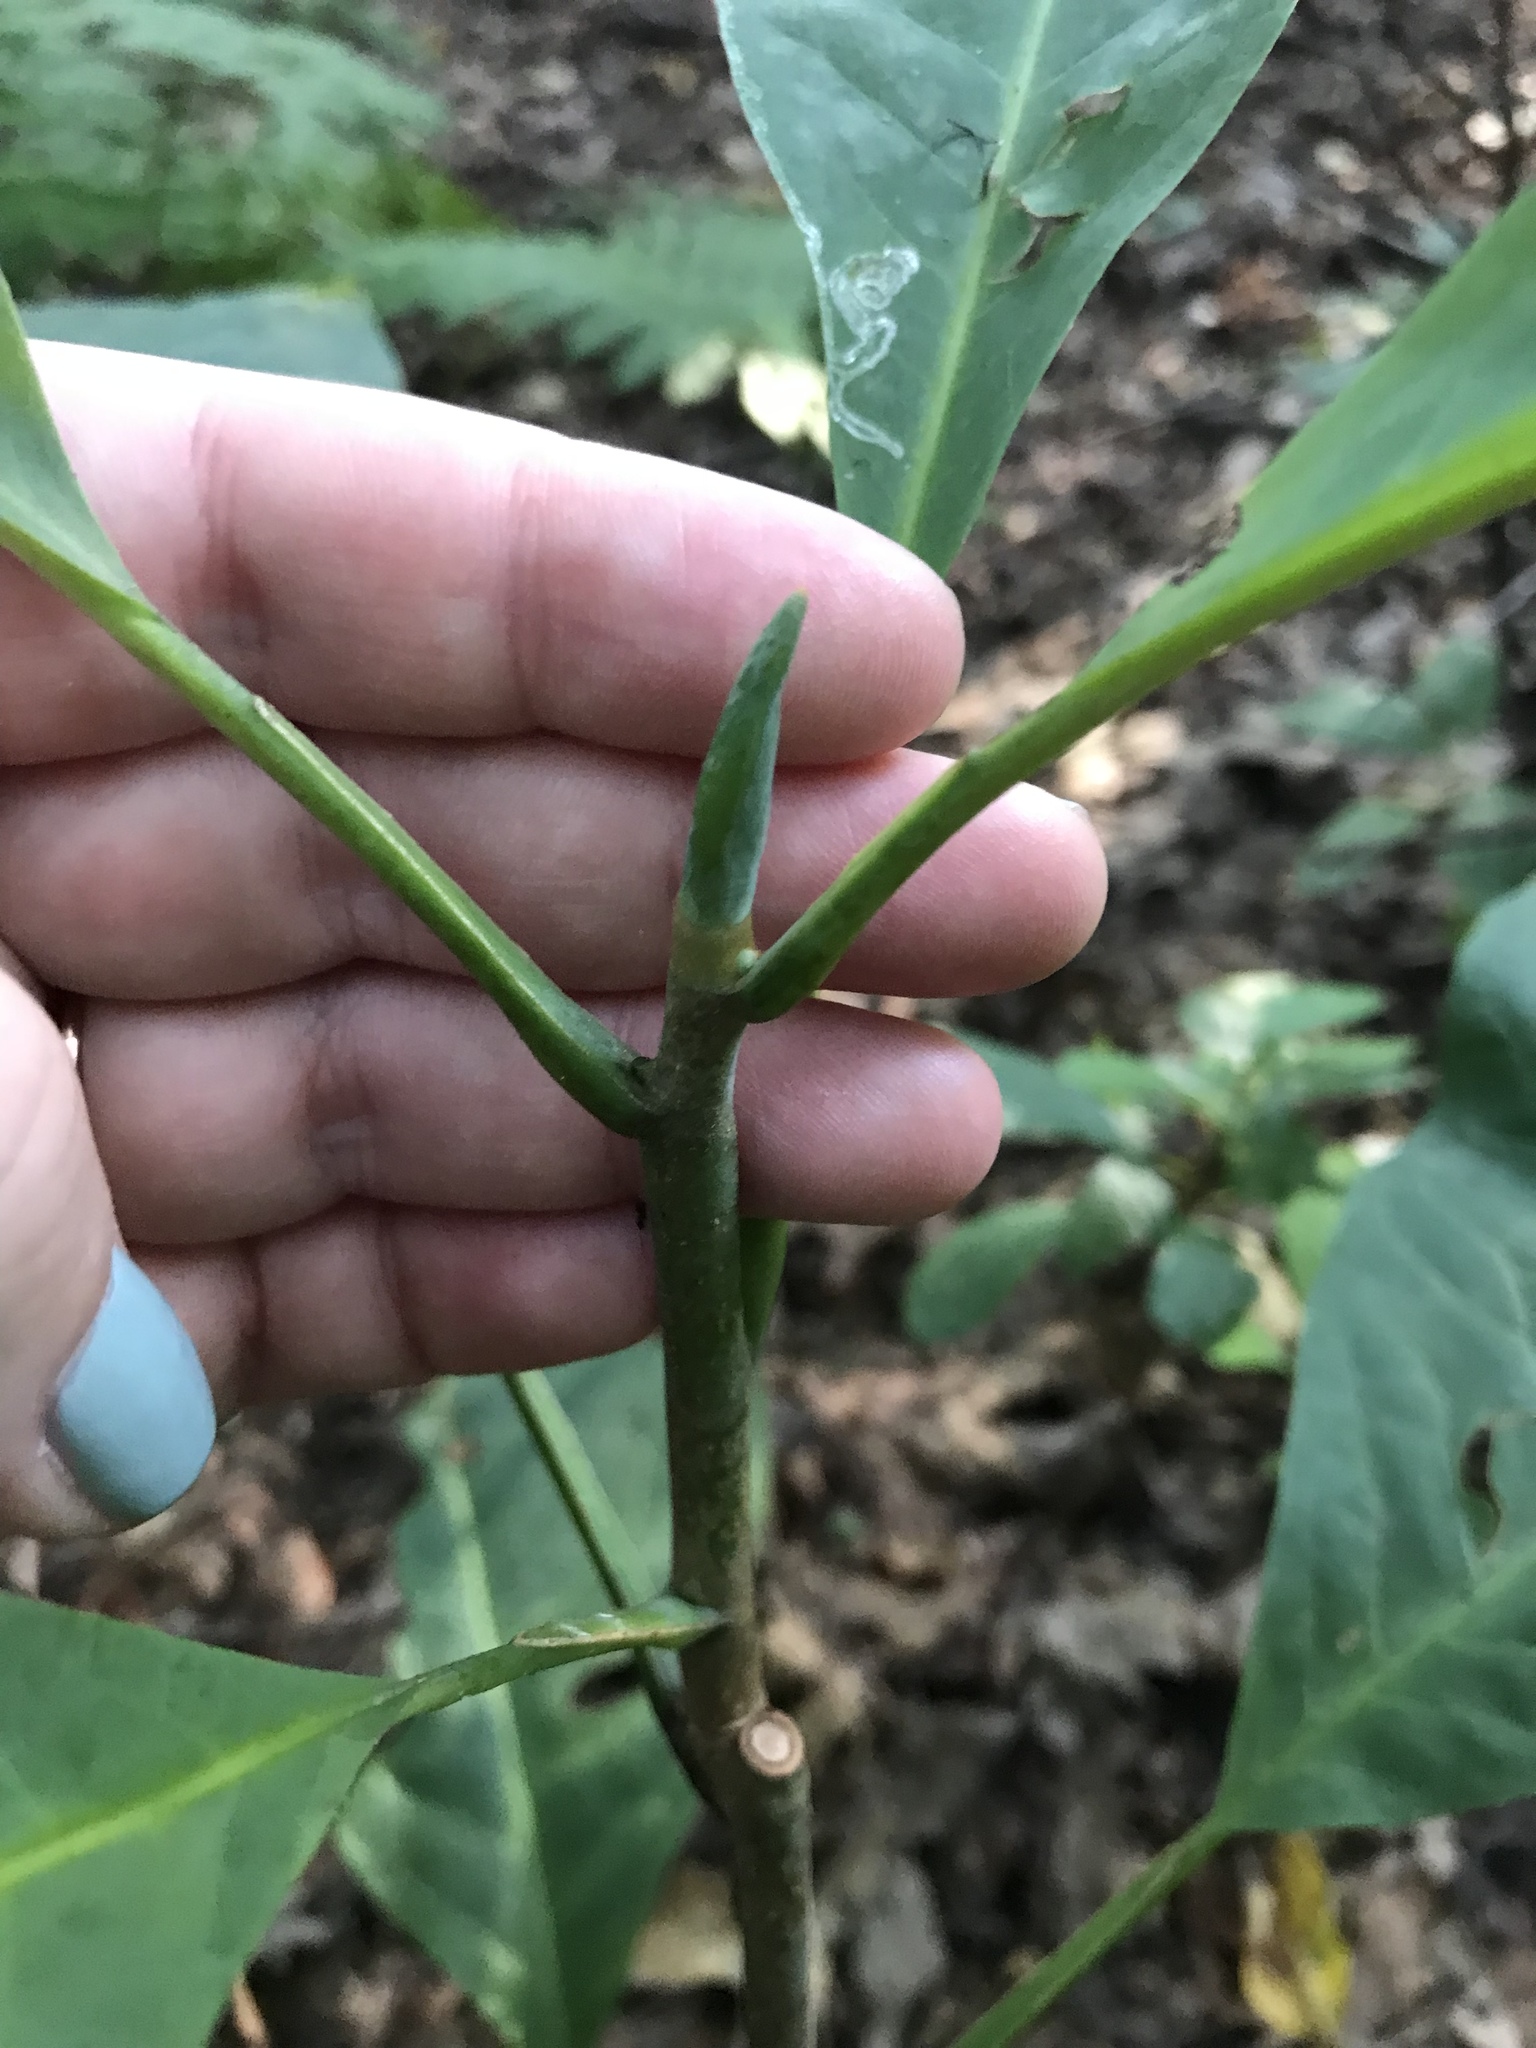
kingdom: Plantae
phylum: Tracheophyta
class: Magnoliopsida
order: Magnoliales
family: Magnoliaceae
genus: Magnolia
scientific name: Magnolia tripetala
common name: Umbrella magnolia
